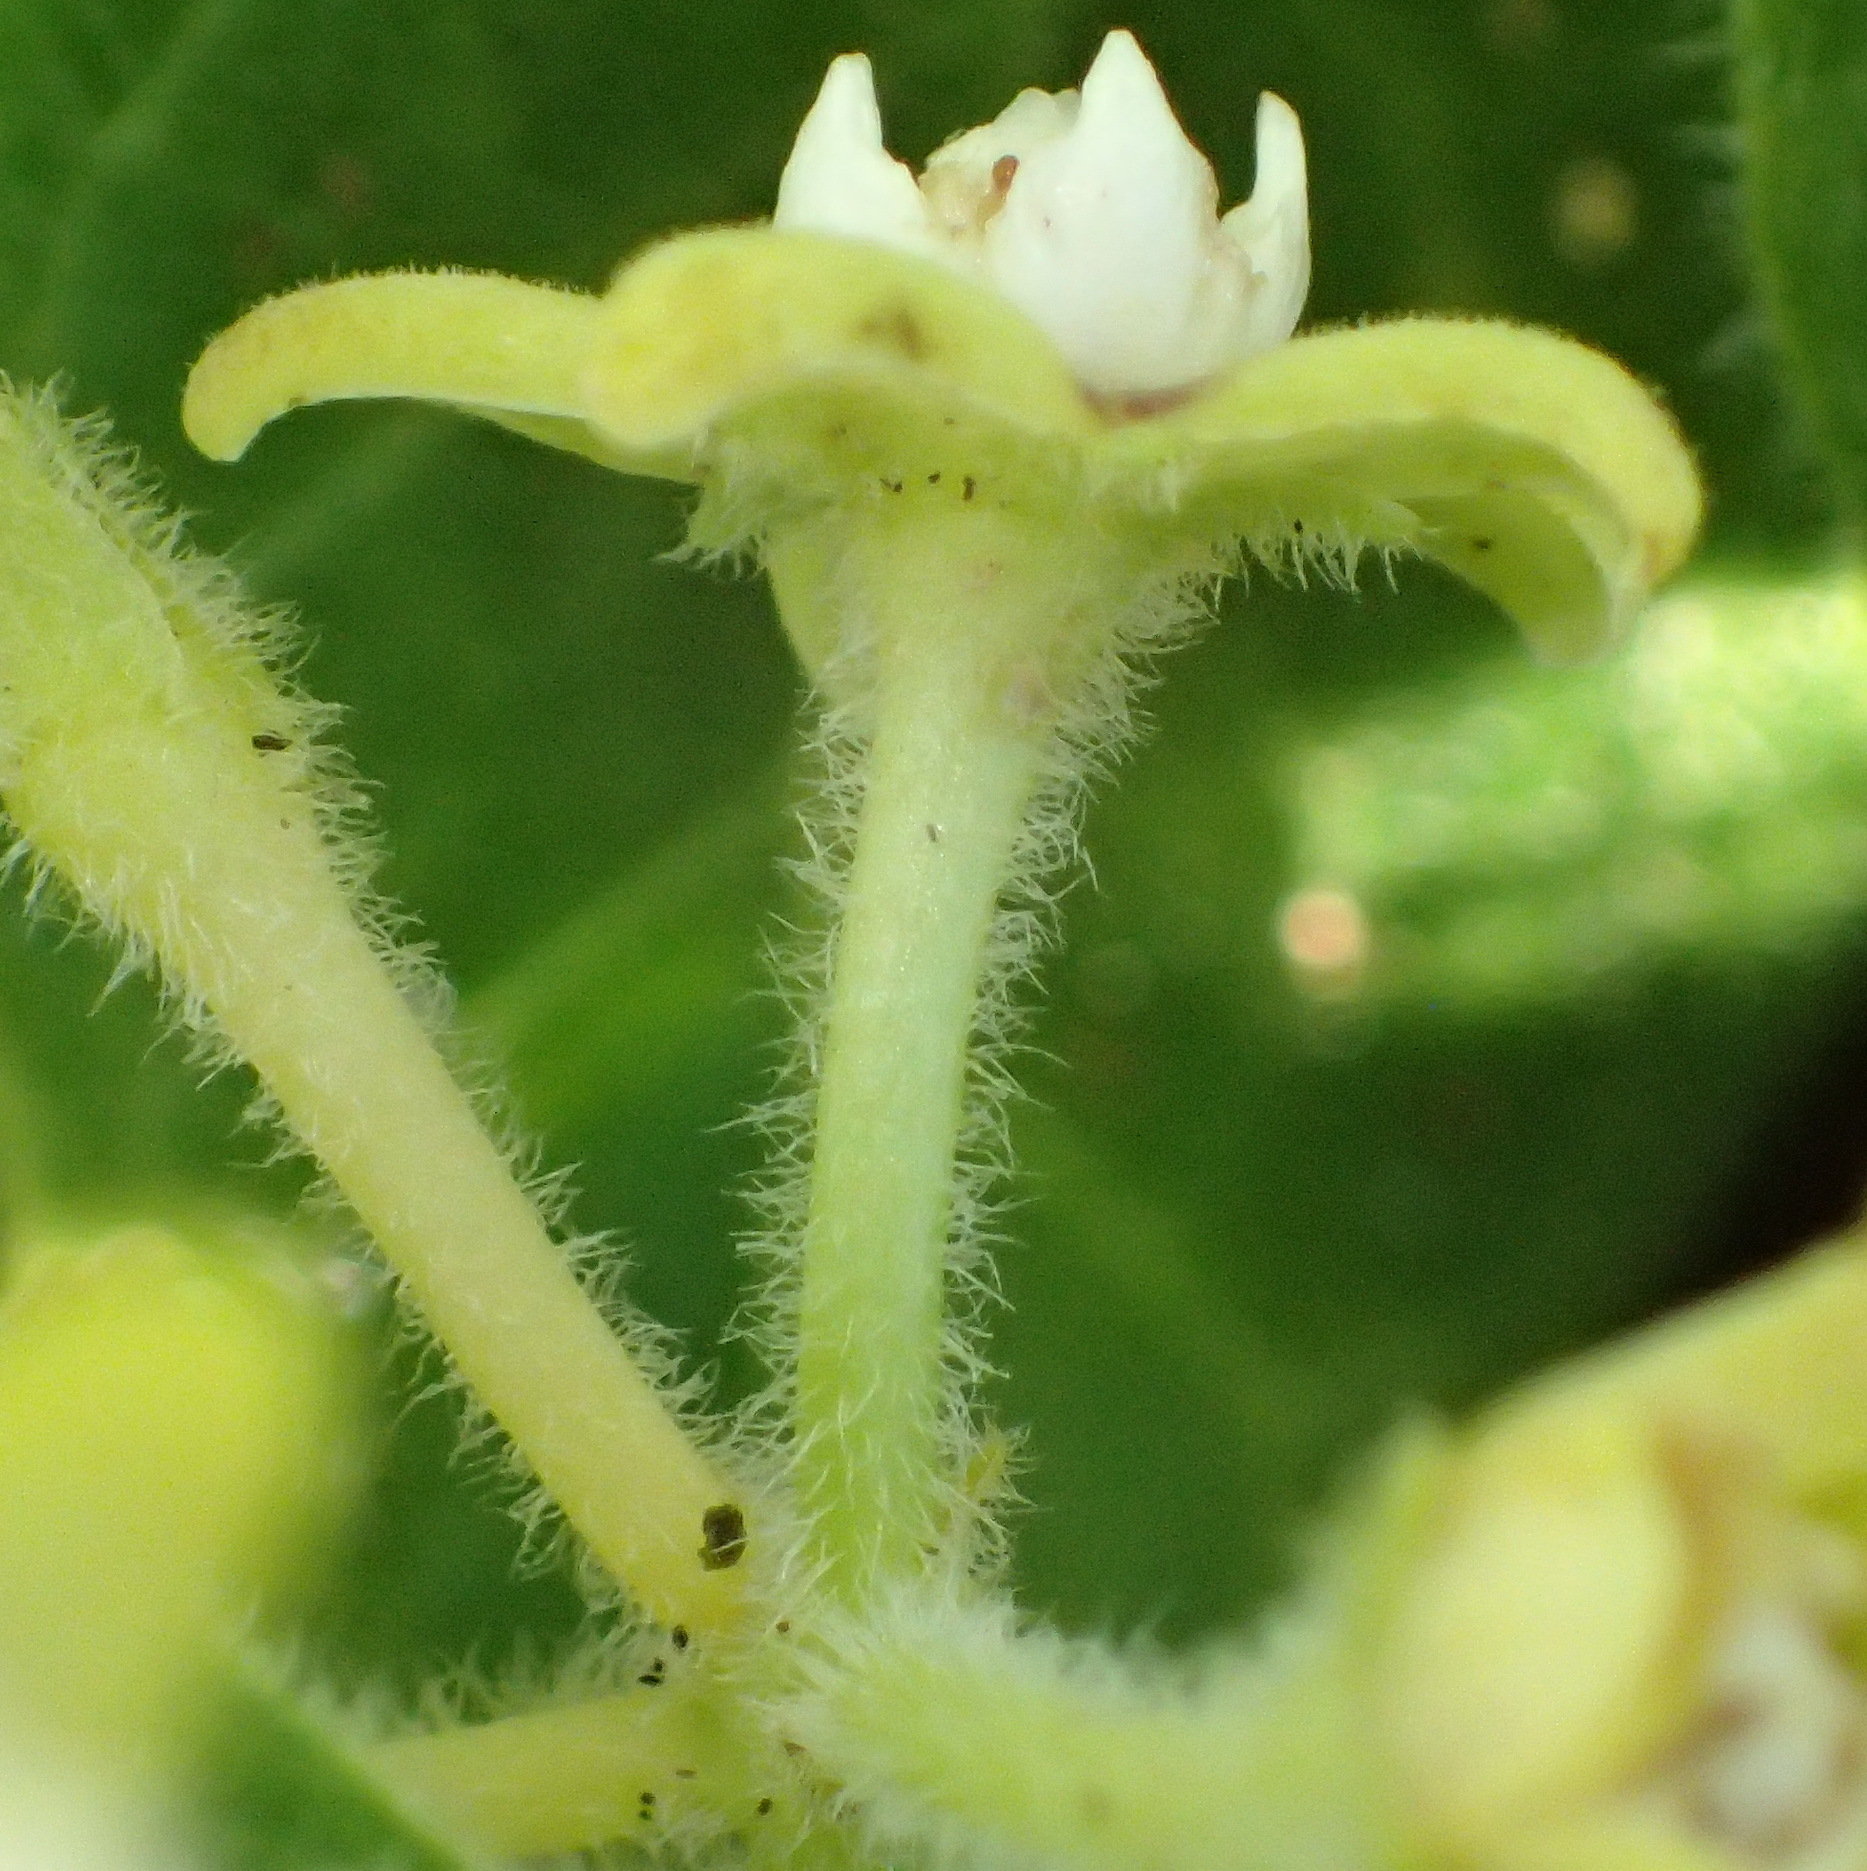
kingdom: Plantae
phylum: Tracheophyta
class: Magnoliopsida
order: Gentianales
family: Apocynaceae
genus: Cynanchum
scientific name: Cynanchum obtusifolium
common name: Monkey-rope
